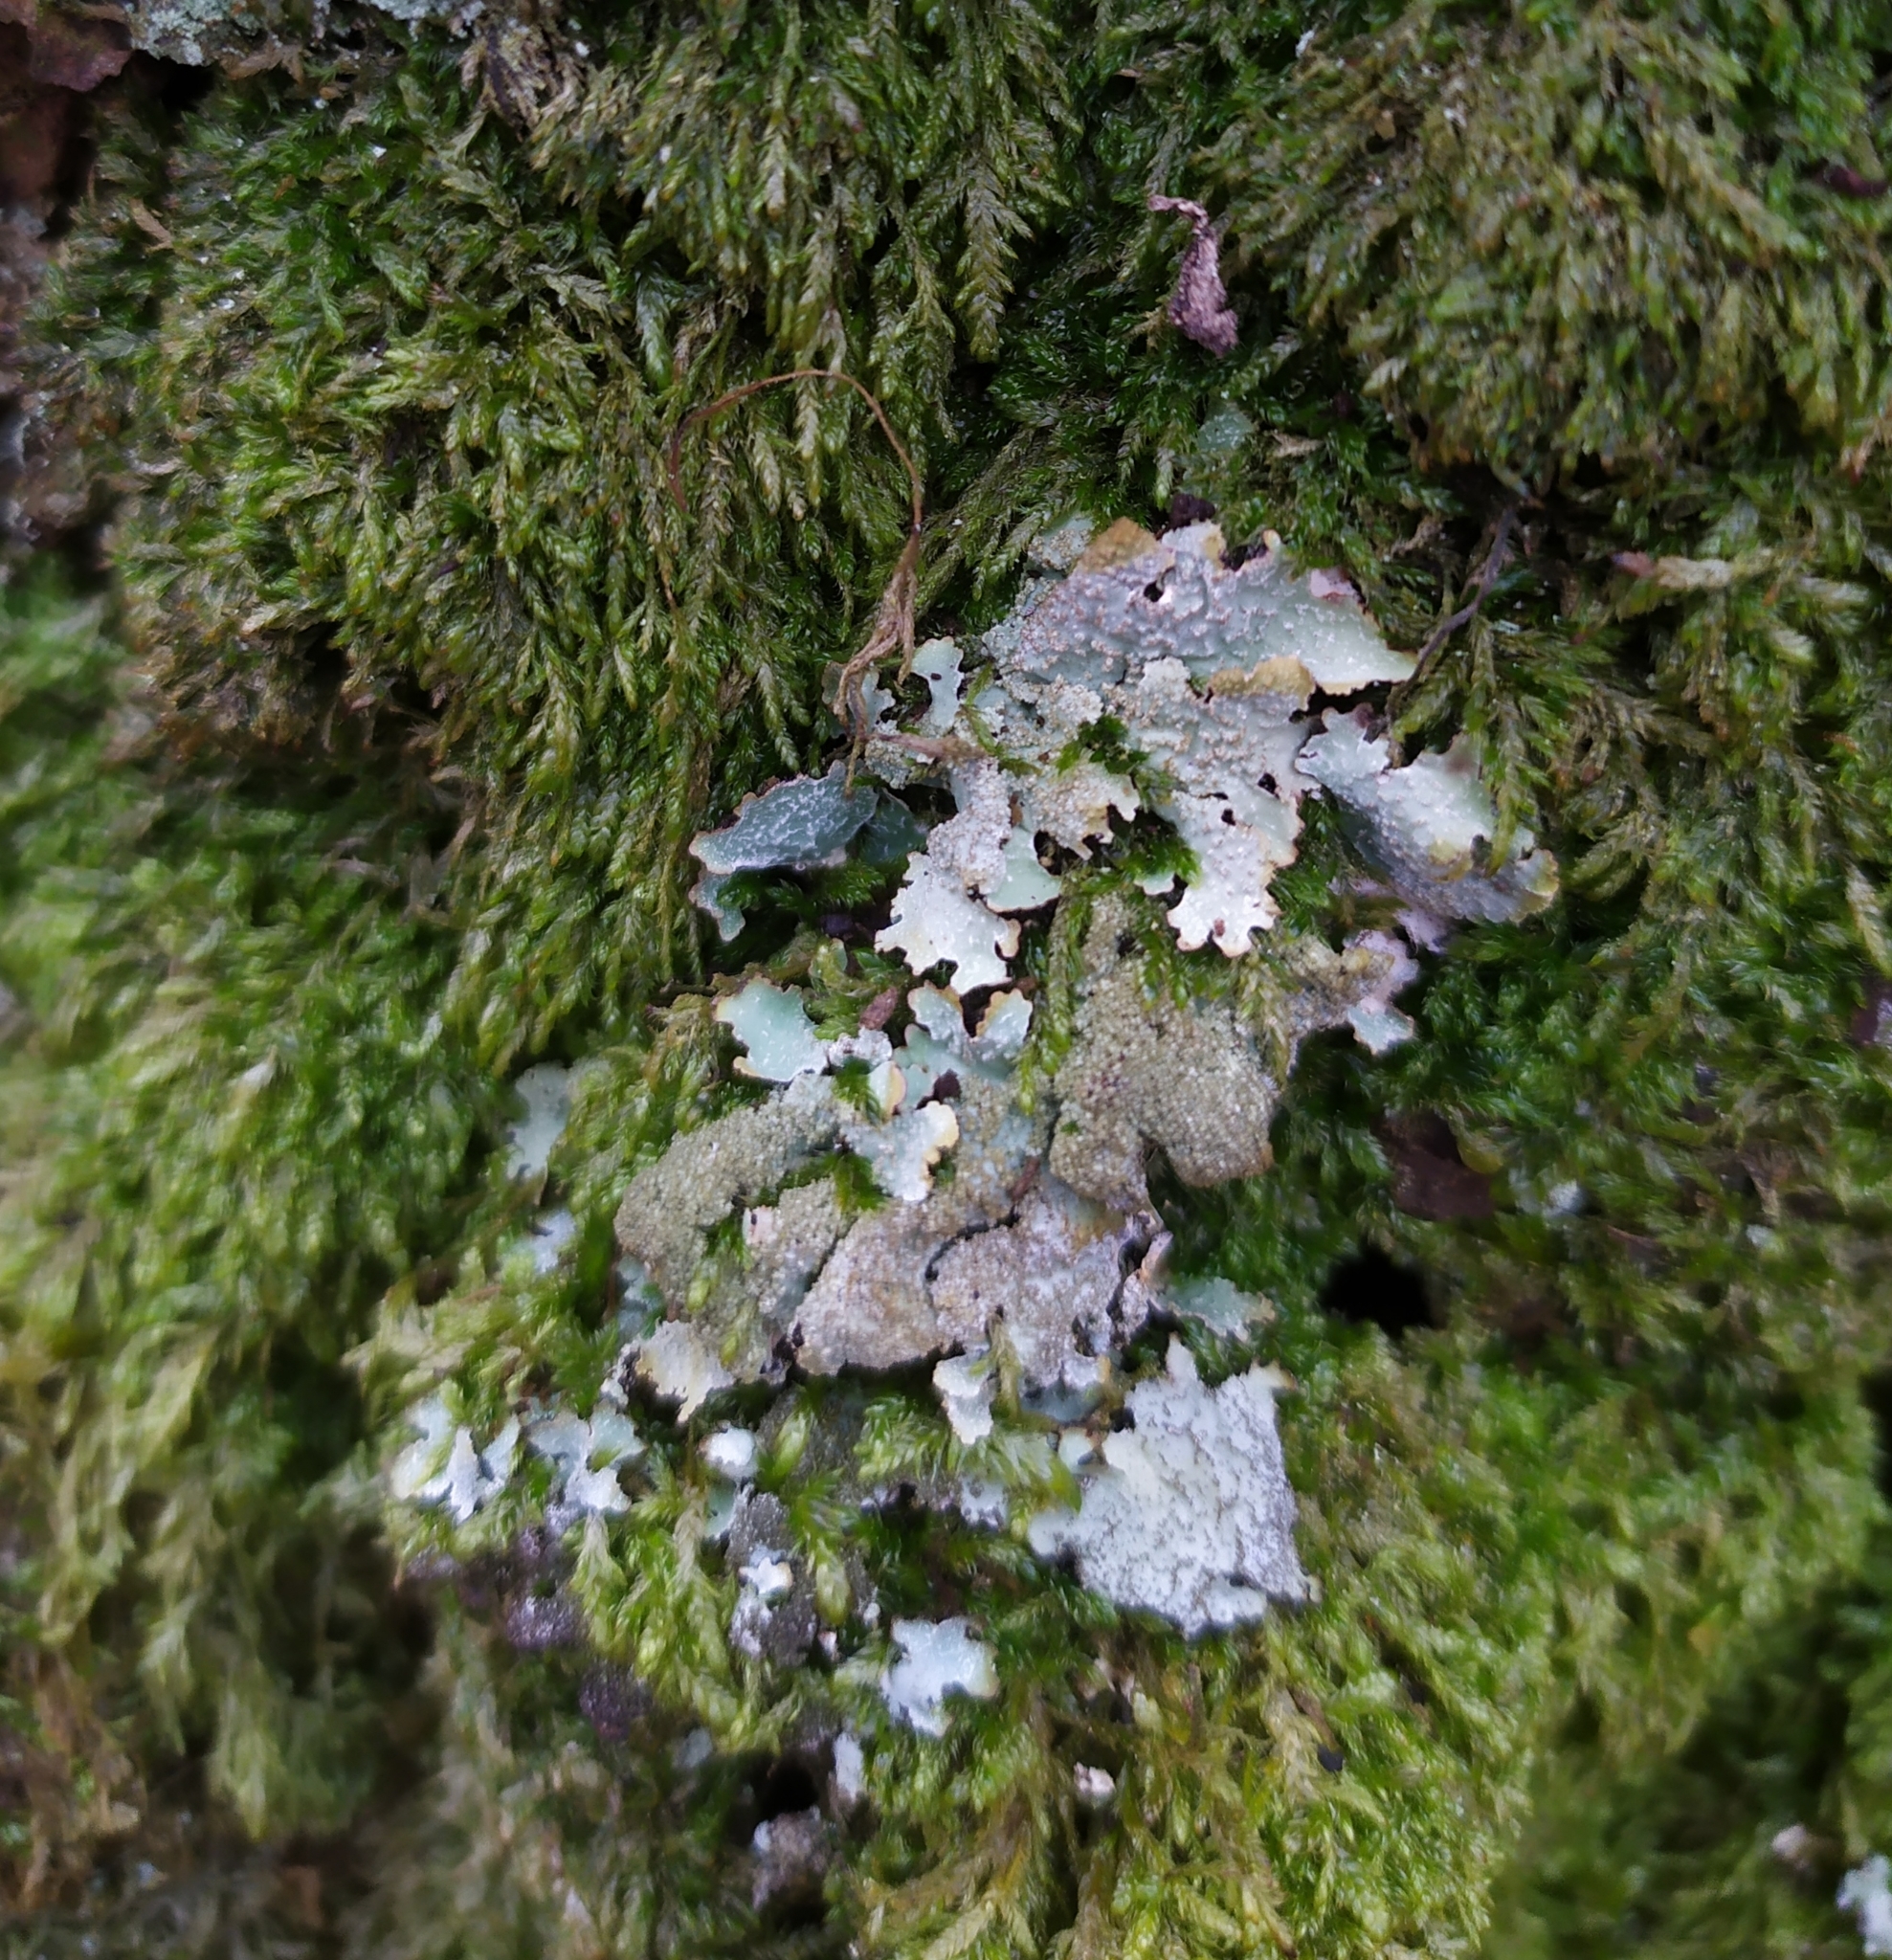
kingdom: Fungi
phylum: Ascomycota
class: Lecanoromycetes
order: Lecanorales
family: Parmeliaceae
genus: Parmelia
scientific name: Parmelia saxatilis
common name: Salted shield lichen
